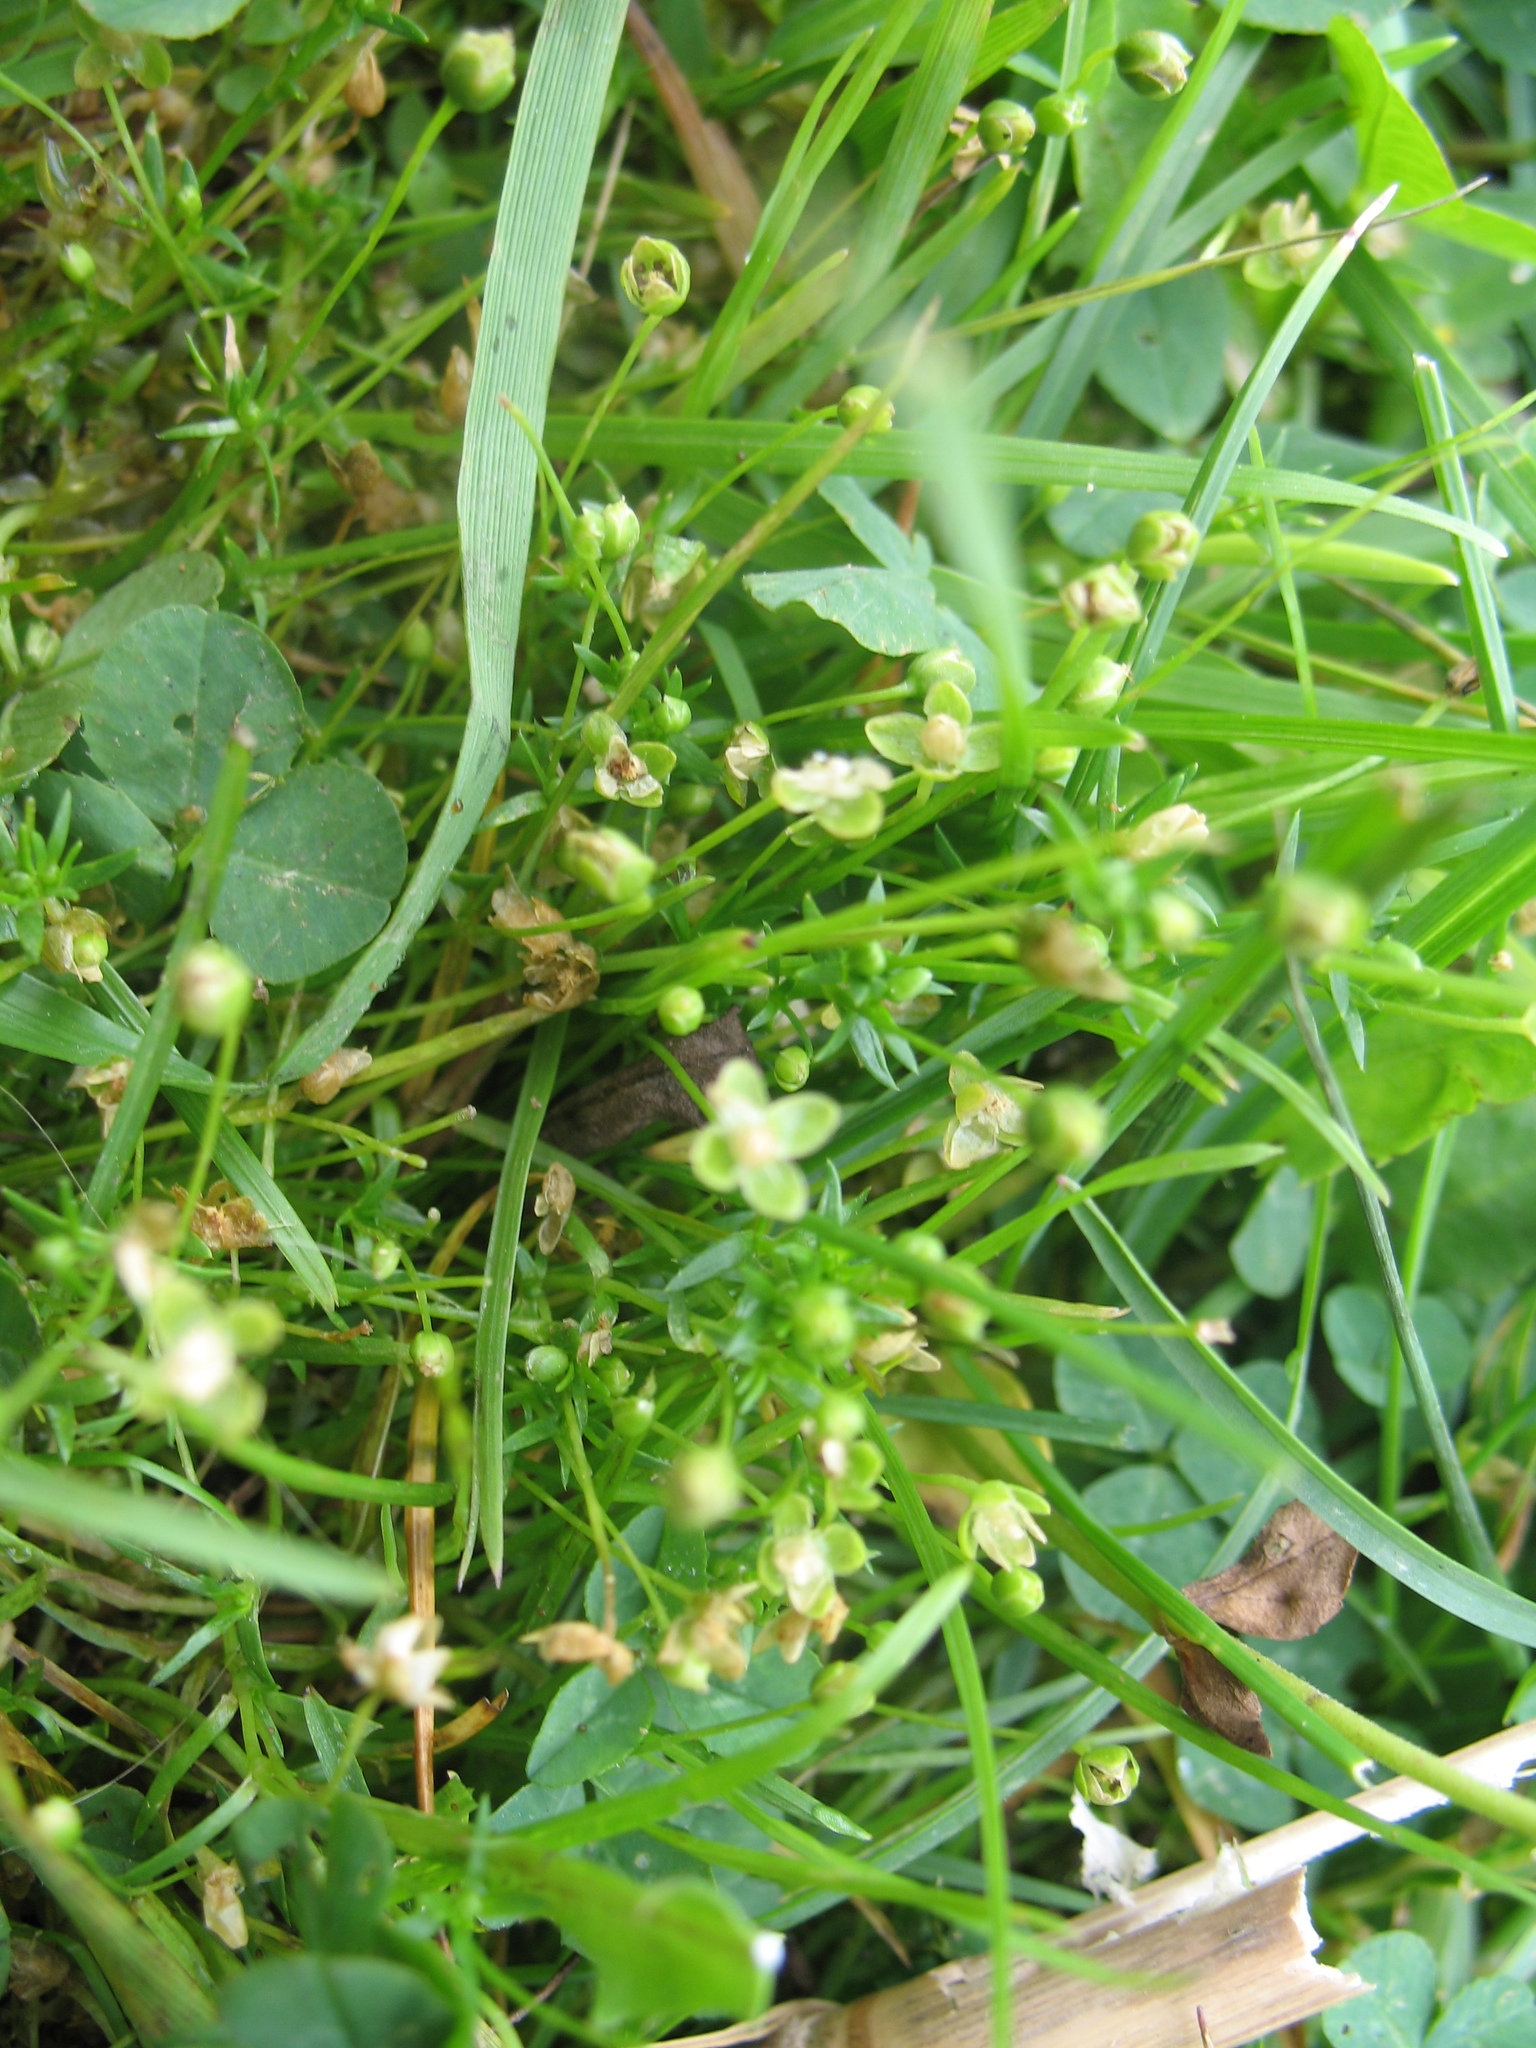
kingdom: Plantae
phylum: Tracheophyta
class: Magnoliopsida
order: Caryophyllales
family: Caryophyllaceae
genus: Sagina
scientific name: Sagina procumbens
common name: Procumbent pearlwort
